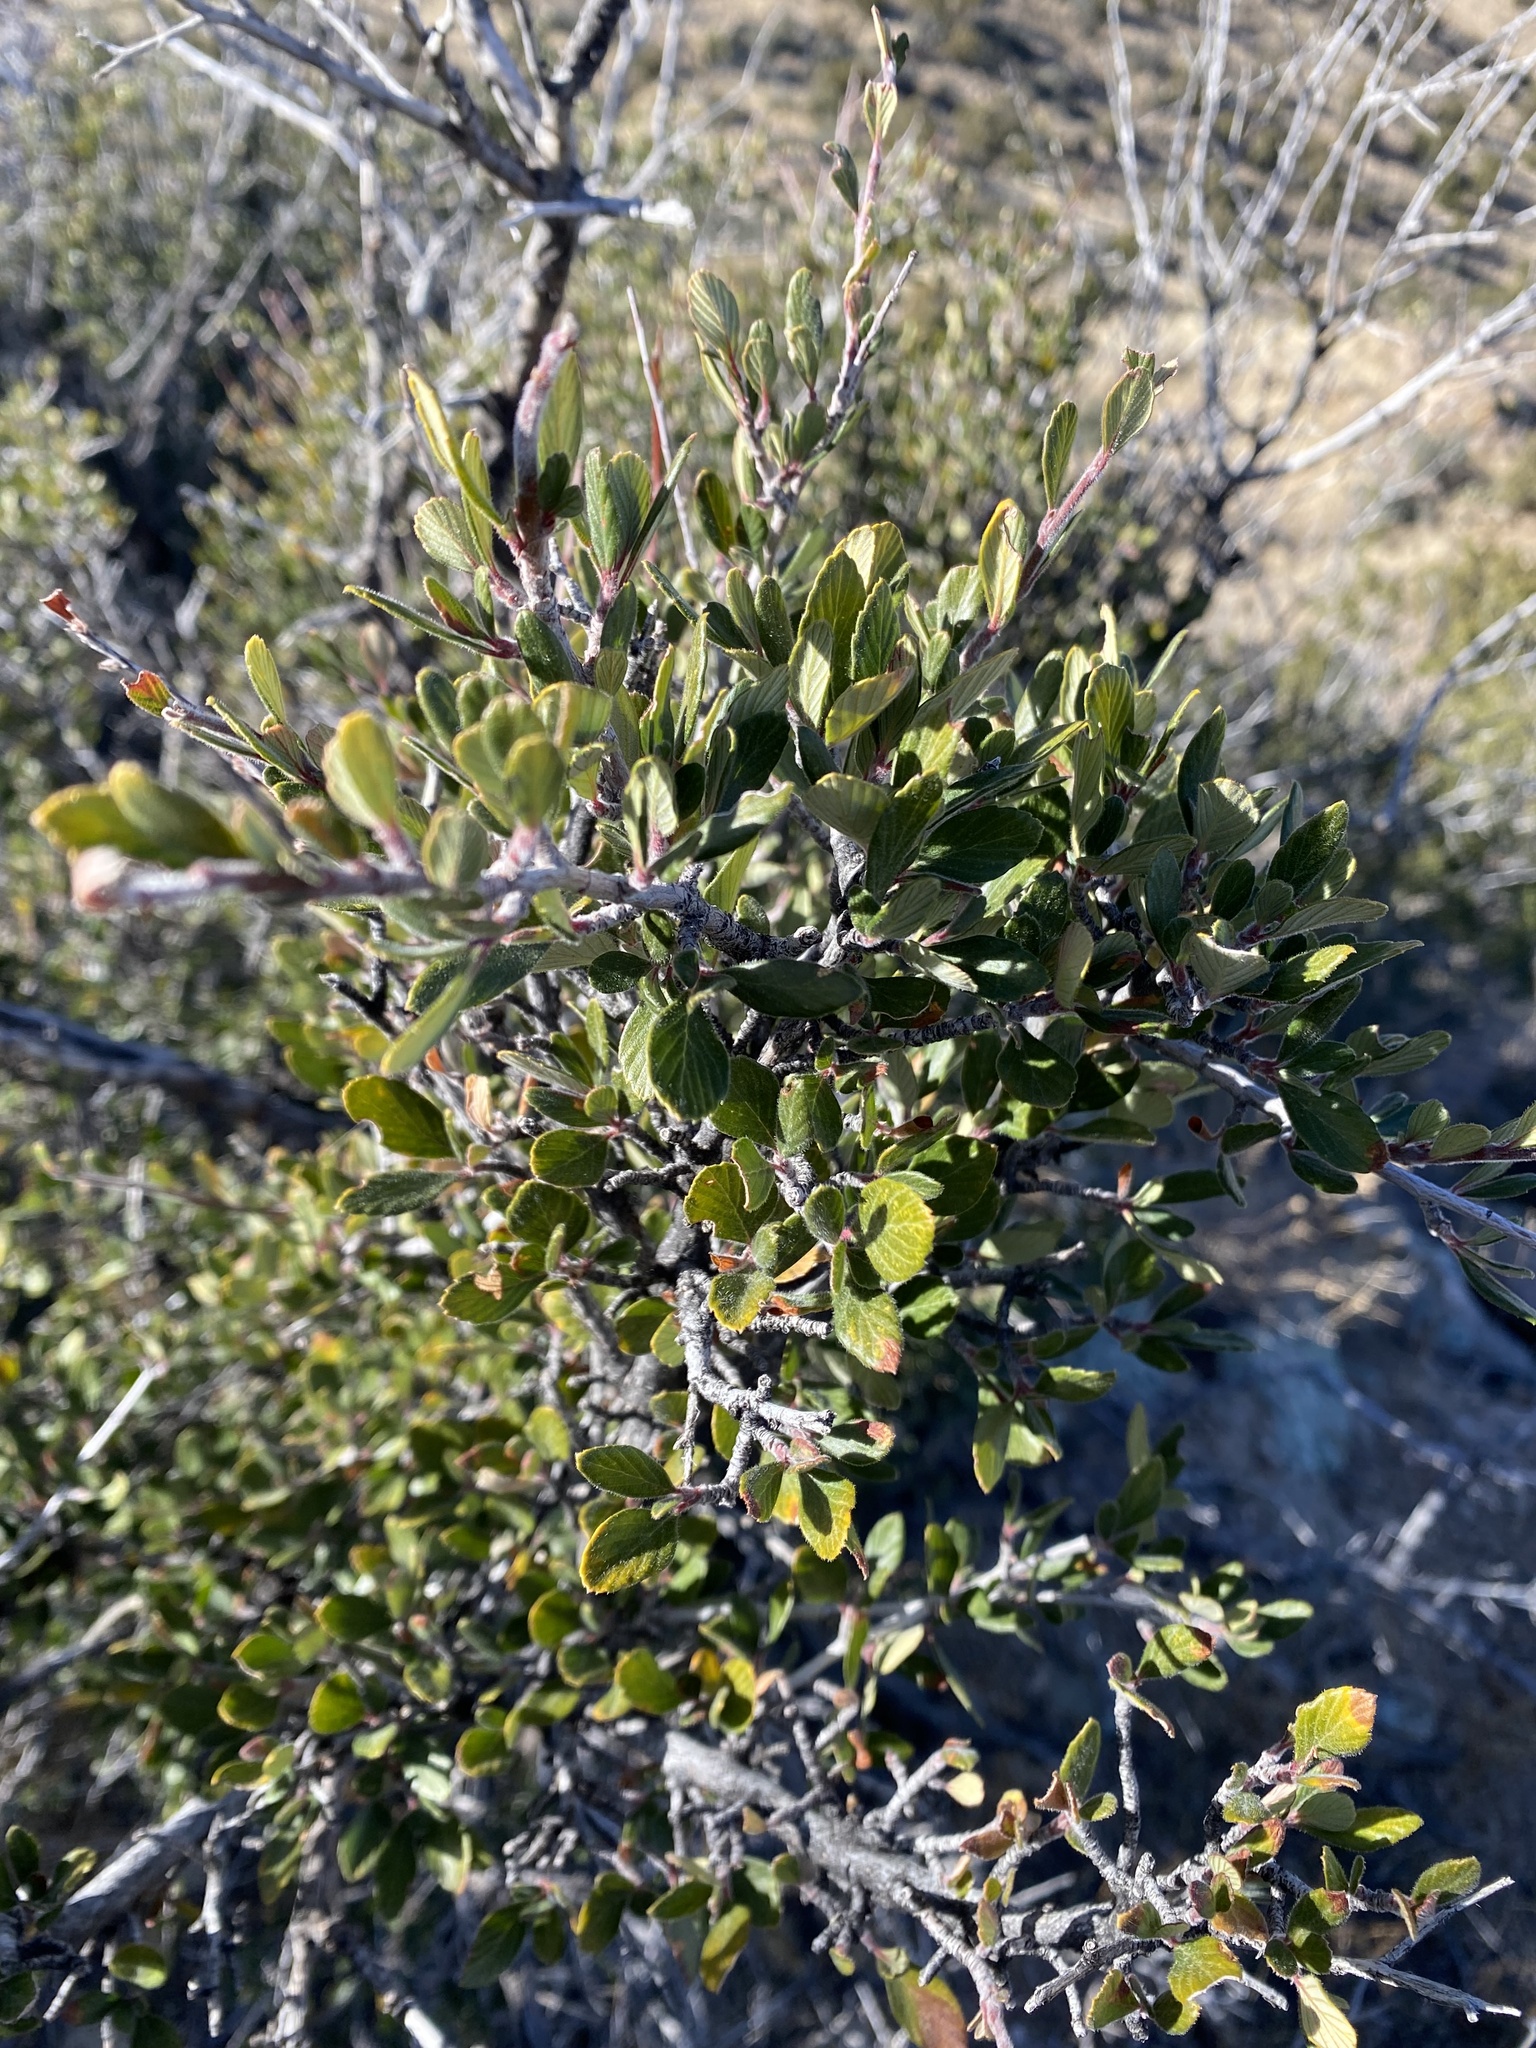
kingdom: Plantae
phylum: Tracheophyta
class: Magnoliopsida
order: Rosales
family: Rosaceae
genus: Cercocarpus
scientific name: Cercocarpus breviflorus
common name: Wright's mountain-mahogany
